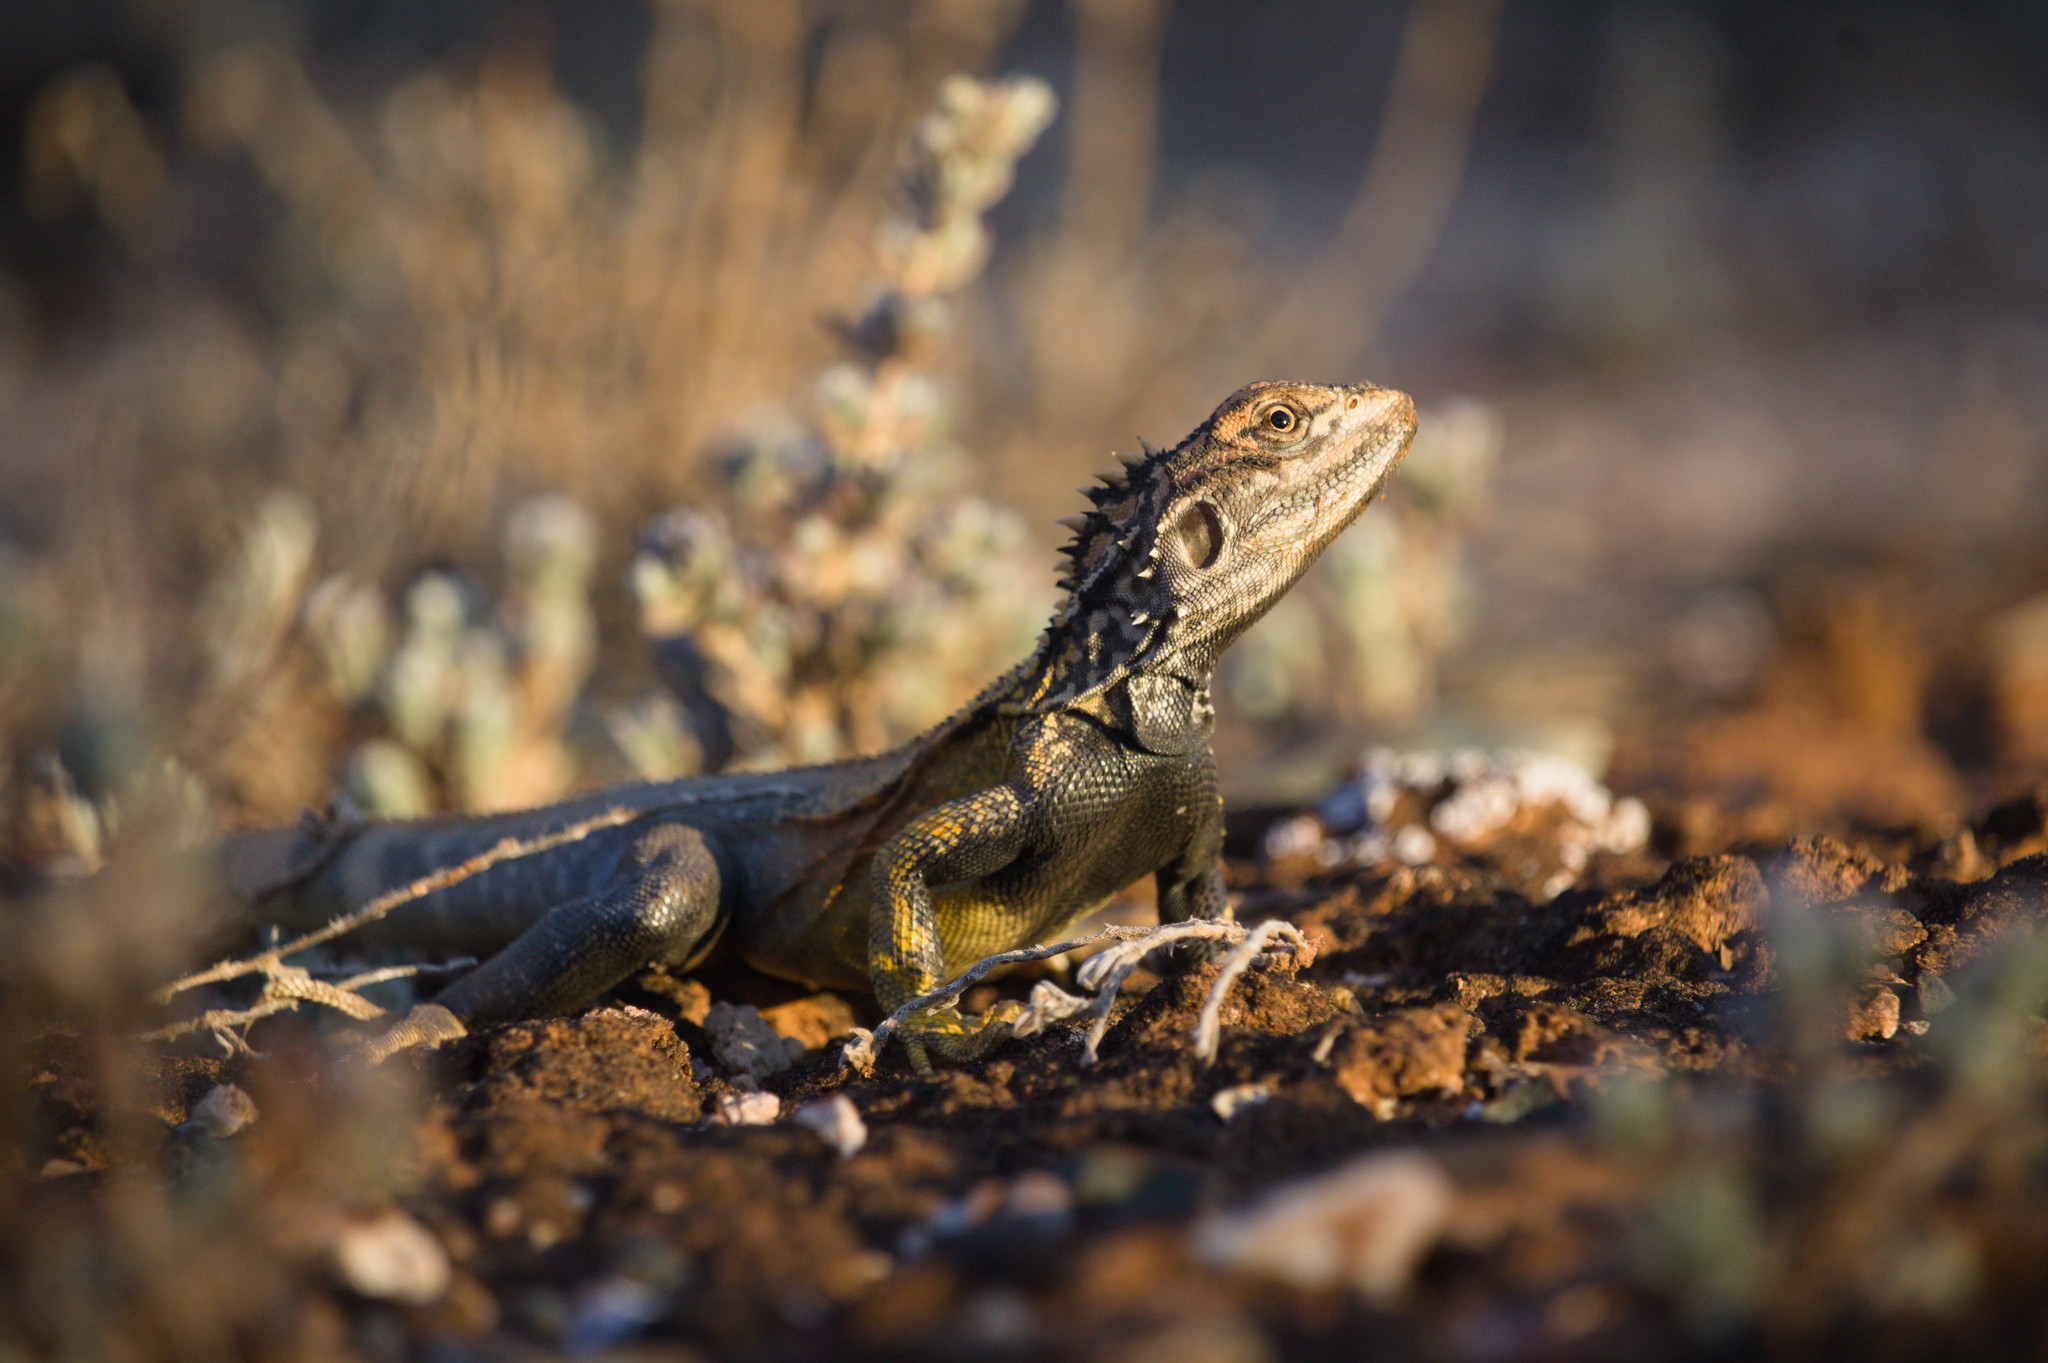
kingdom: Animalia
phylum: Chordata
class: Squamata
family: Agamidae
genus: Ctenophorus
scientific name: Ctenophorus cristatus
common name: Crested dragon
